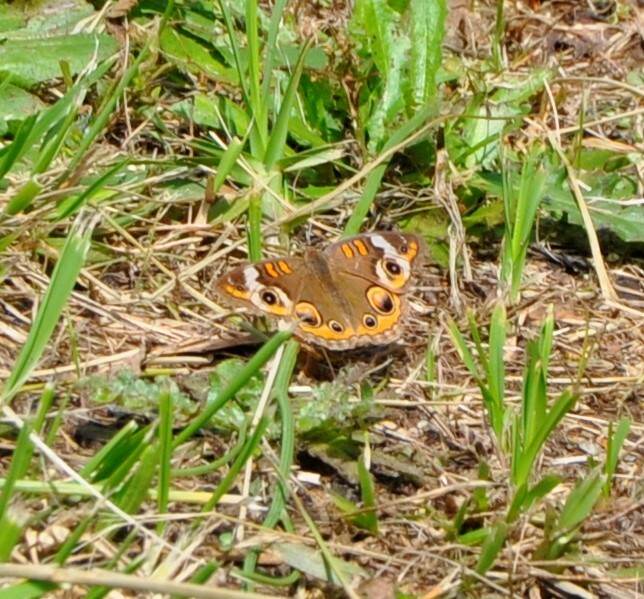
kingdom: Animalia
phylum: Arthropoda
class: Insecta
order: Lepidoptera
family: Nymphalidae
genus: Junonia
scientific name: Junonia coenia
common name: Common buckeye
